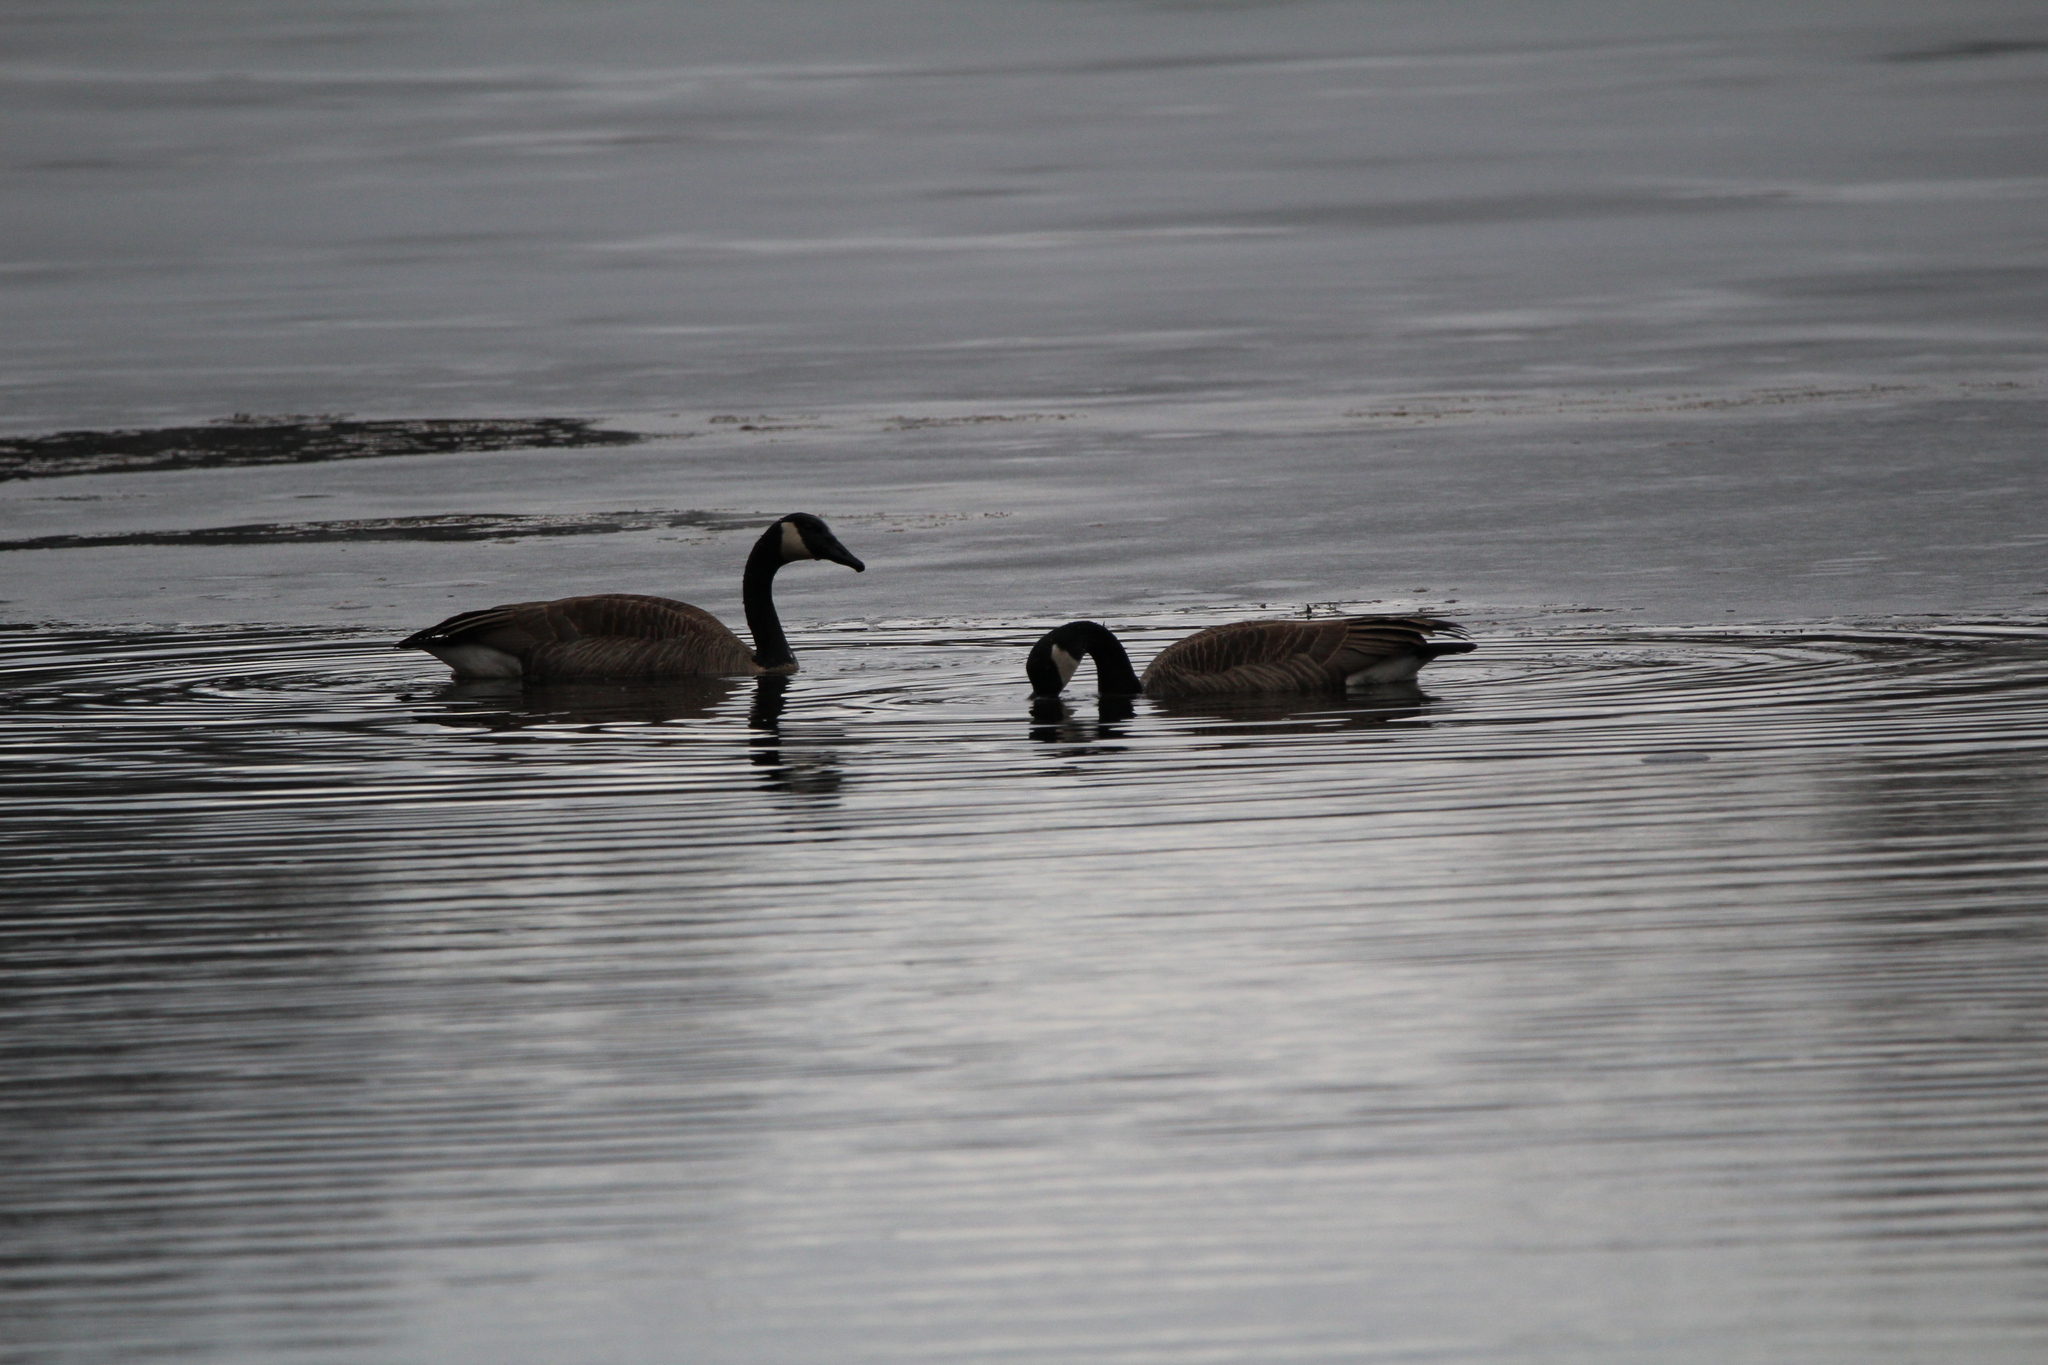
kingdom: Animalia
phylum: Chordata
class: Aves
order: Anseriformes
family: Anatidae
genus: Branta
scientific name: Branta canadensis
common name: Canada goose
